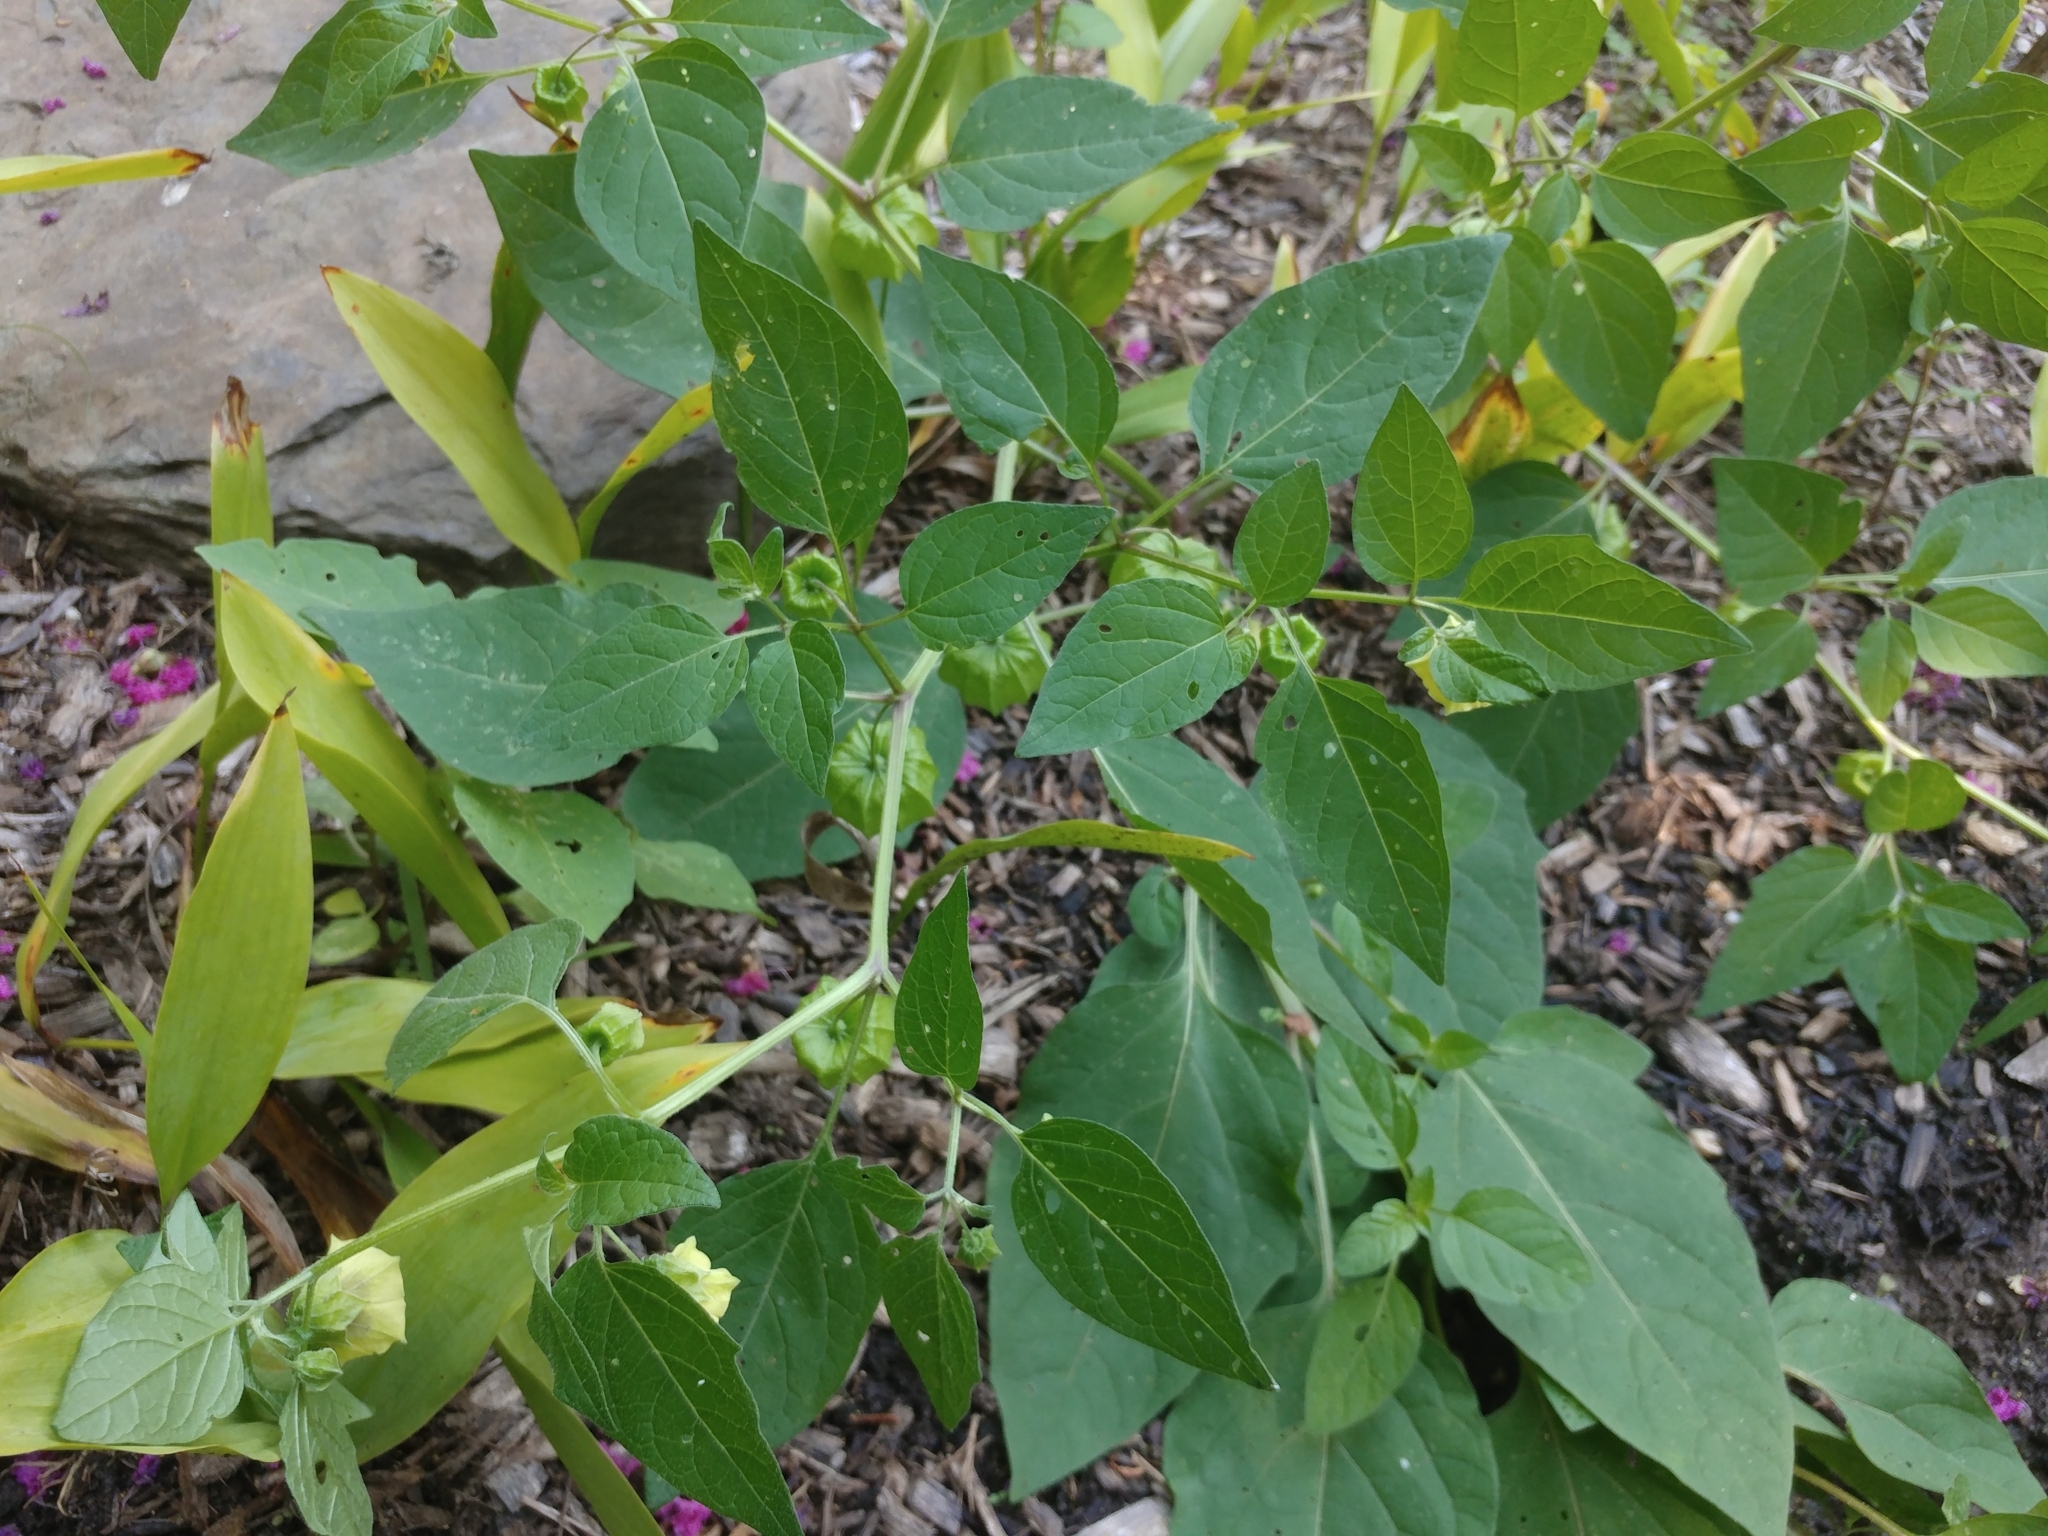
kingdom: Plantae
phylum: Tracheophyta
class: Magnoliopsida
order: Solanales
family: Solanaceae
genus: Physalis
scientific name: Physalis longifolia
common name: Common ground-cherry
